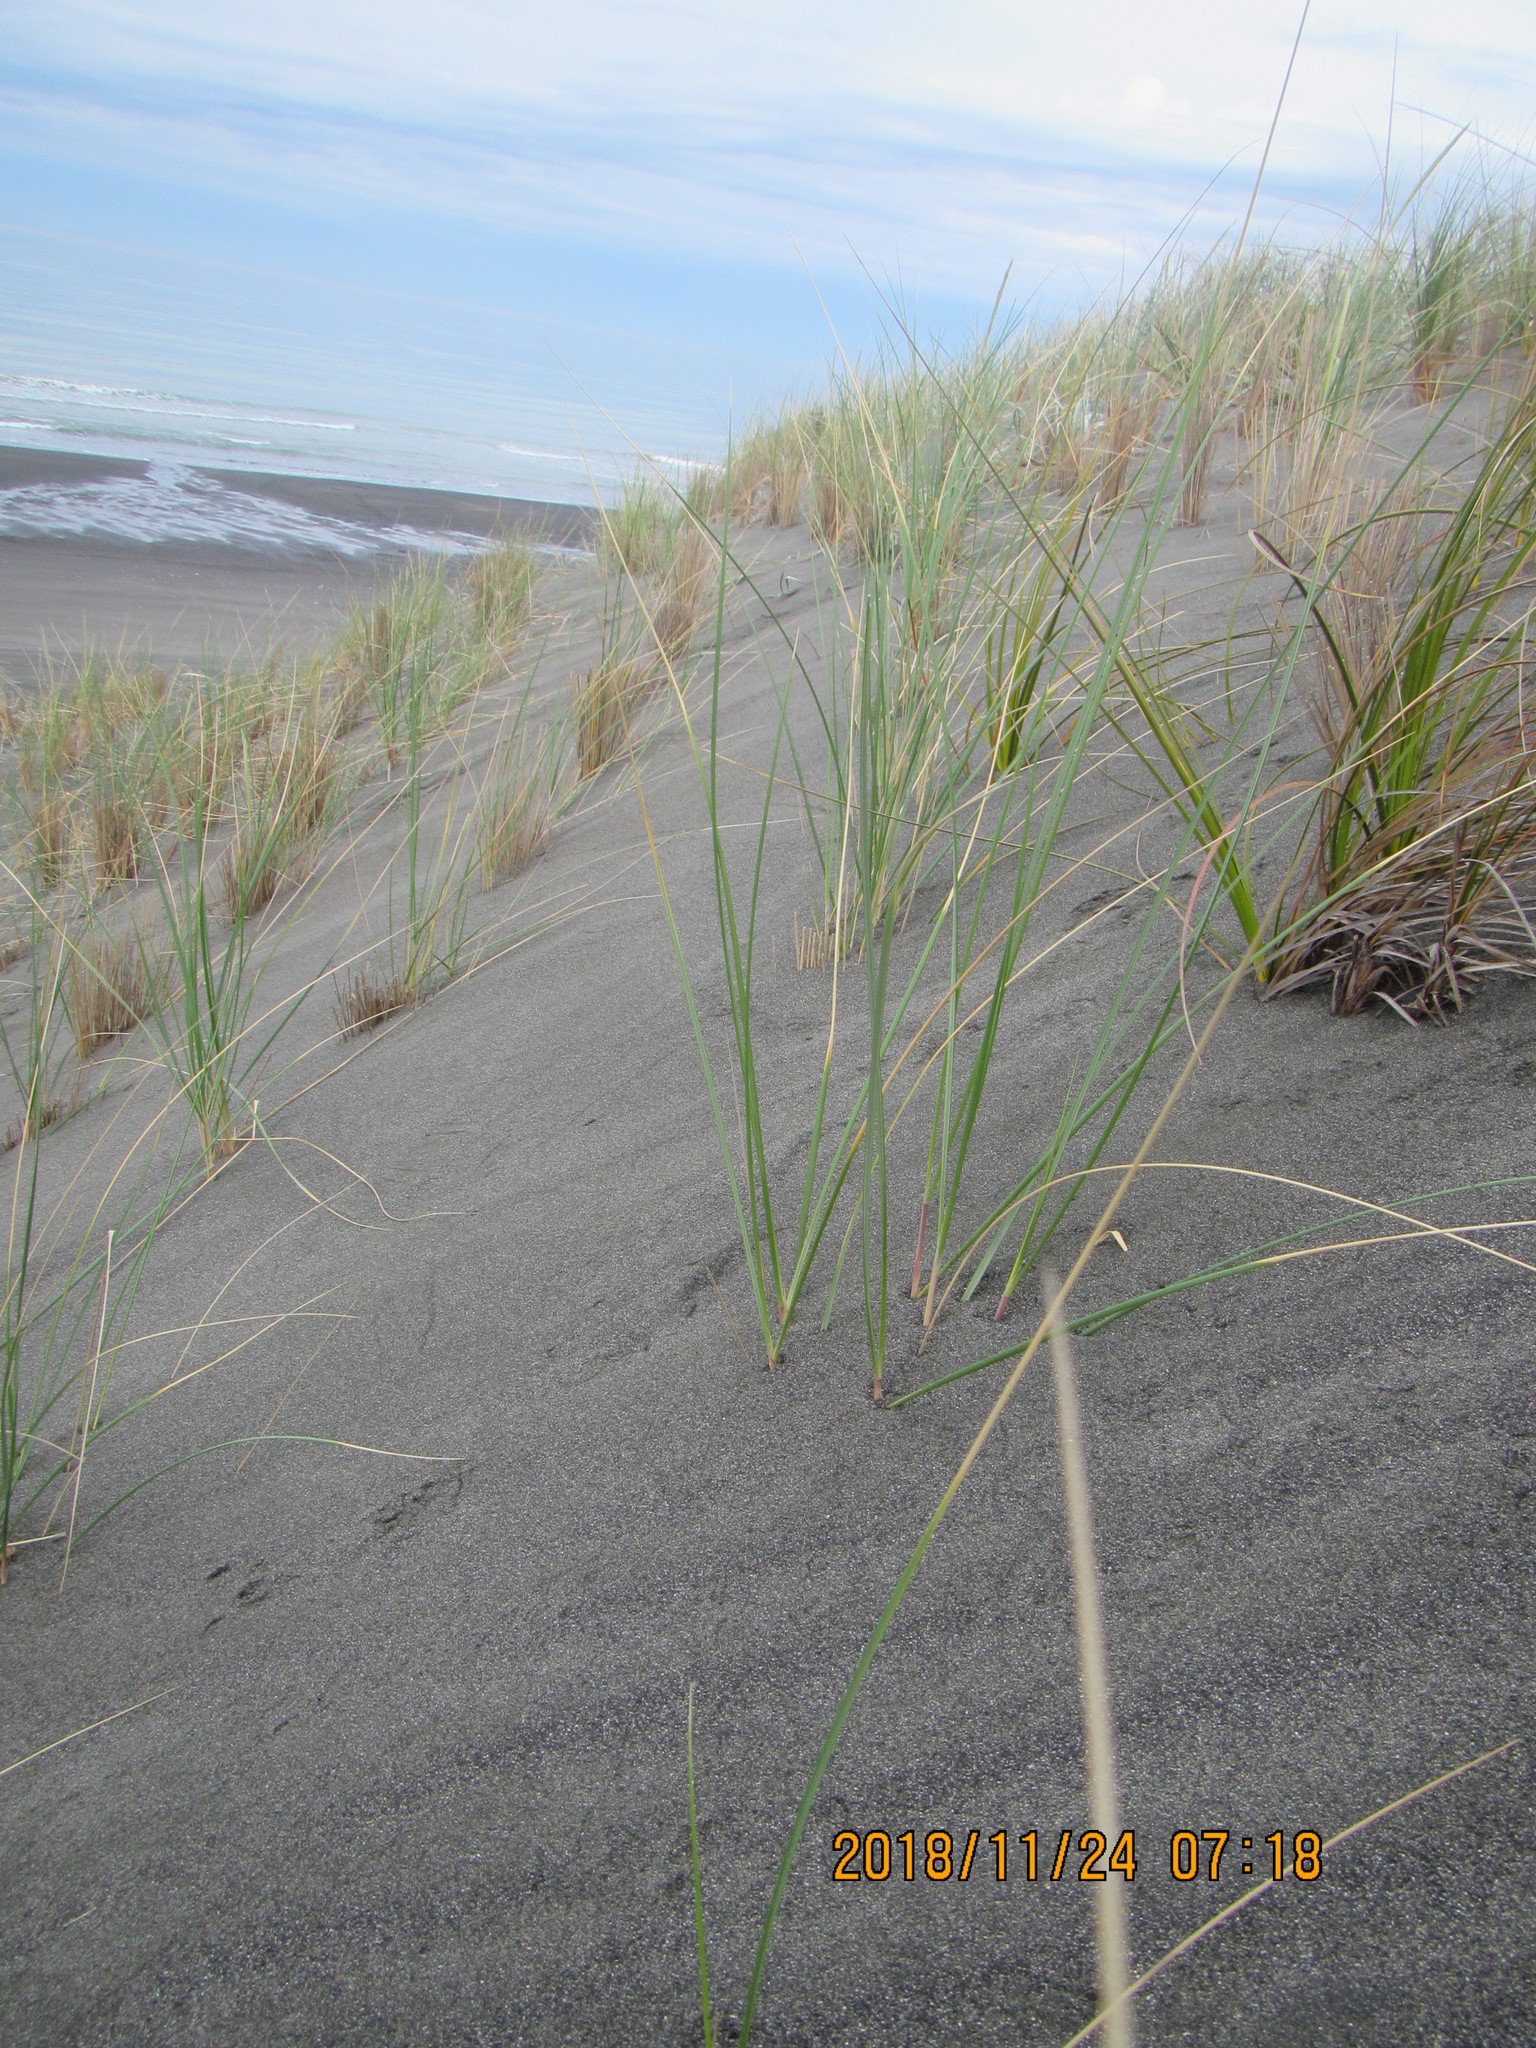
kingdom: Plantae
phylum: Tracheophyta
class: Liliopsida
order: Poales
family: Poaceae
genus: Calamagrostis
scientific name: Calamagrostis arenaria
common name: European beachgrass
